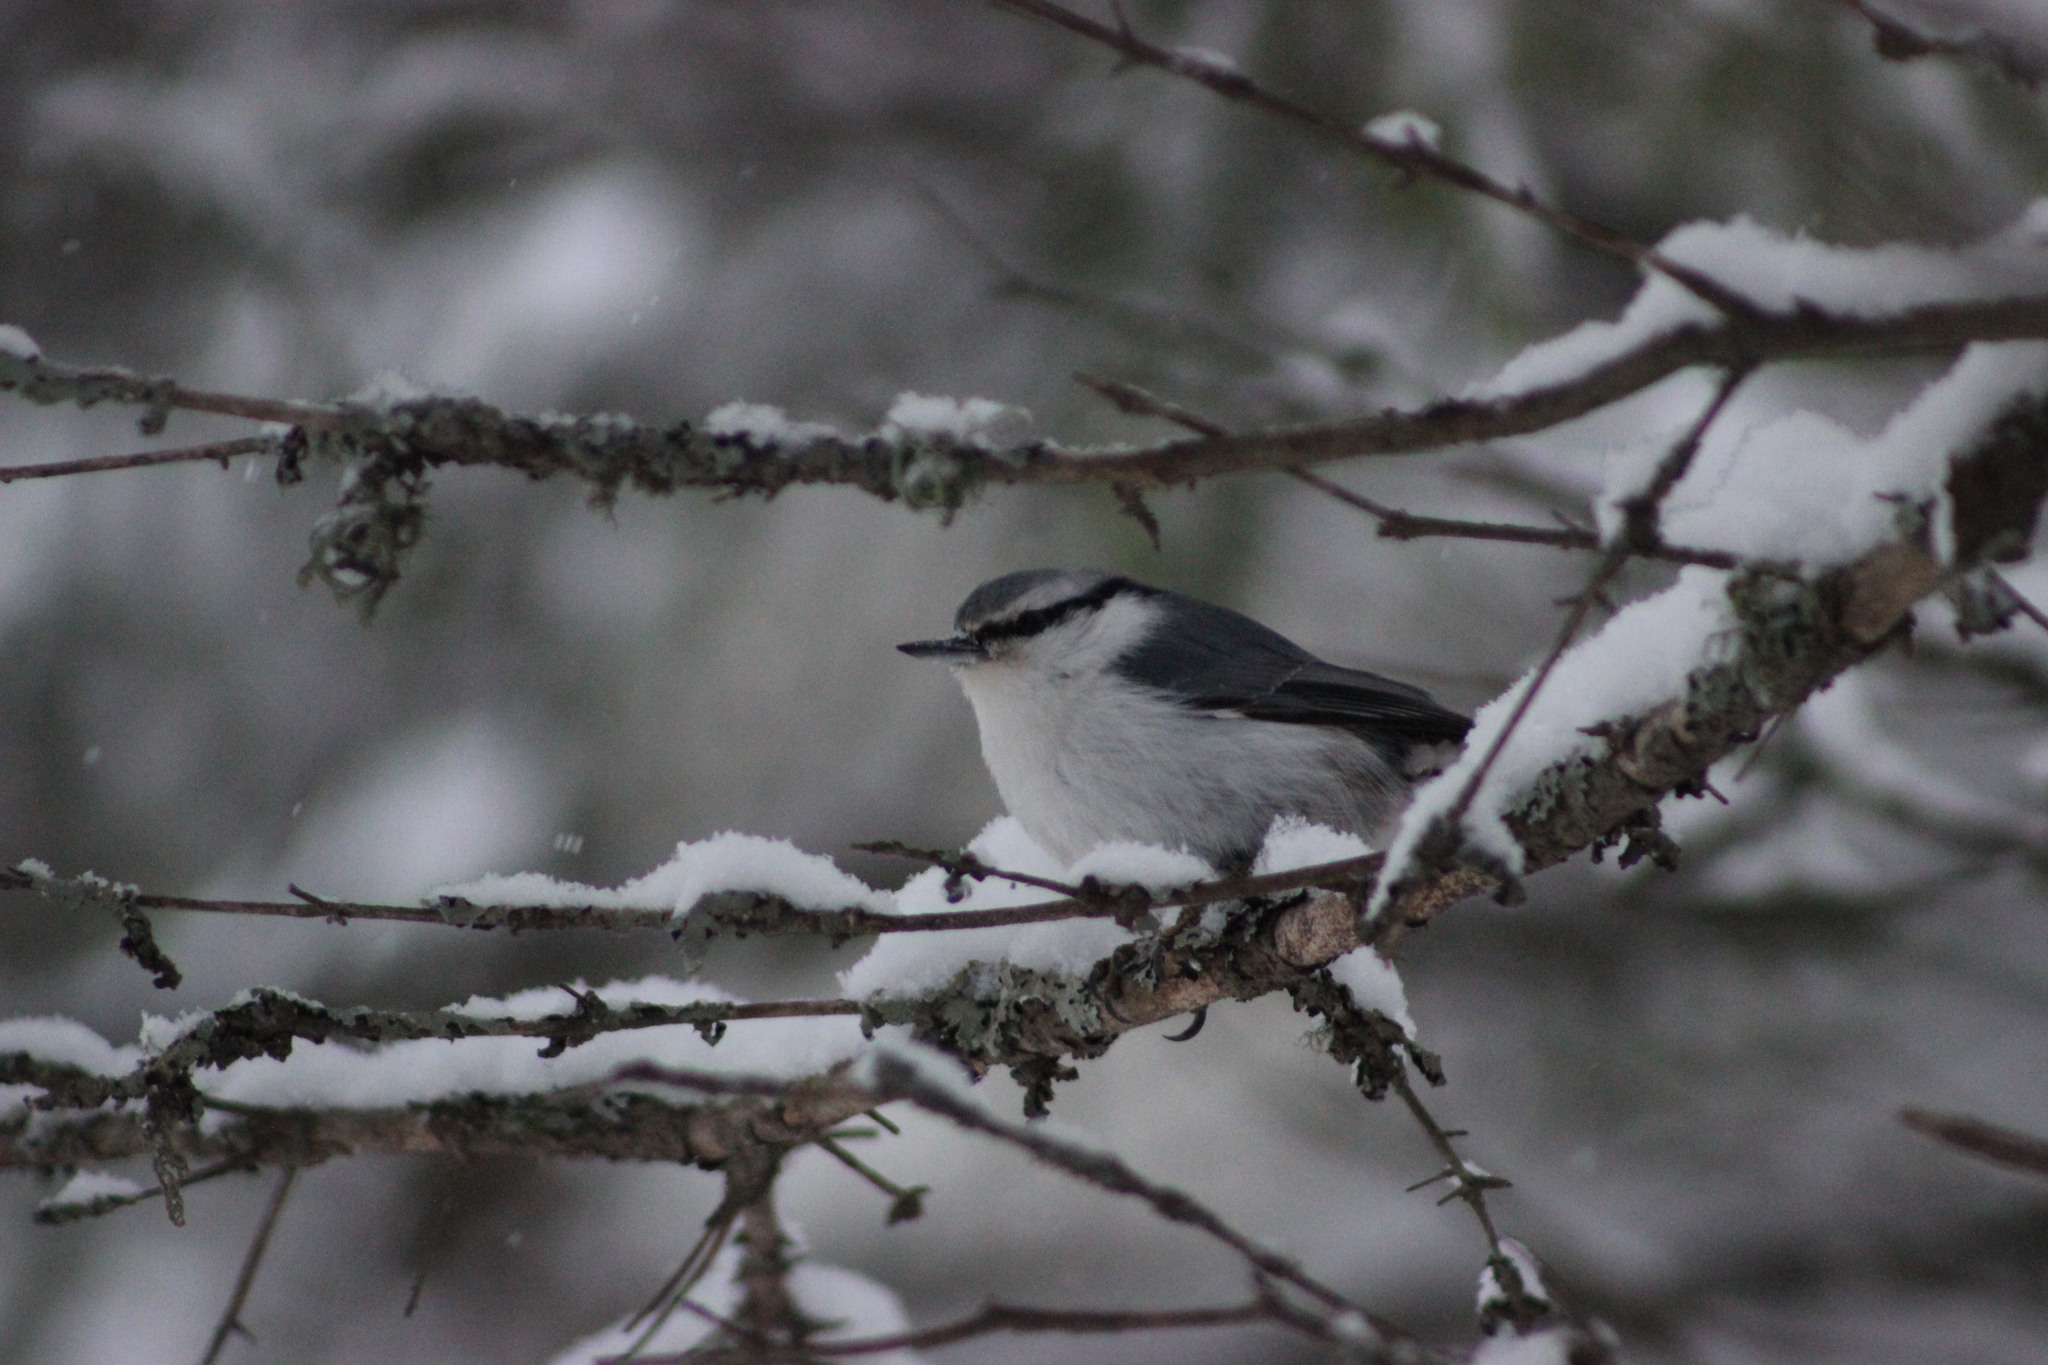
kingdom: Animalia
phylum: Chordata
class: Aves
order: Passeriformes
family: Sittidae
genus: Sitta
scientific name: Sitta europaea
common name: Eurasian nuthatch
